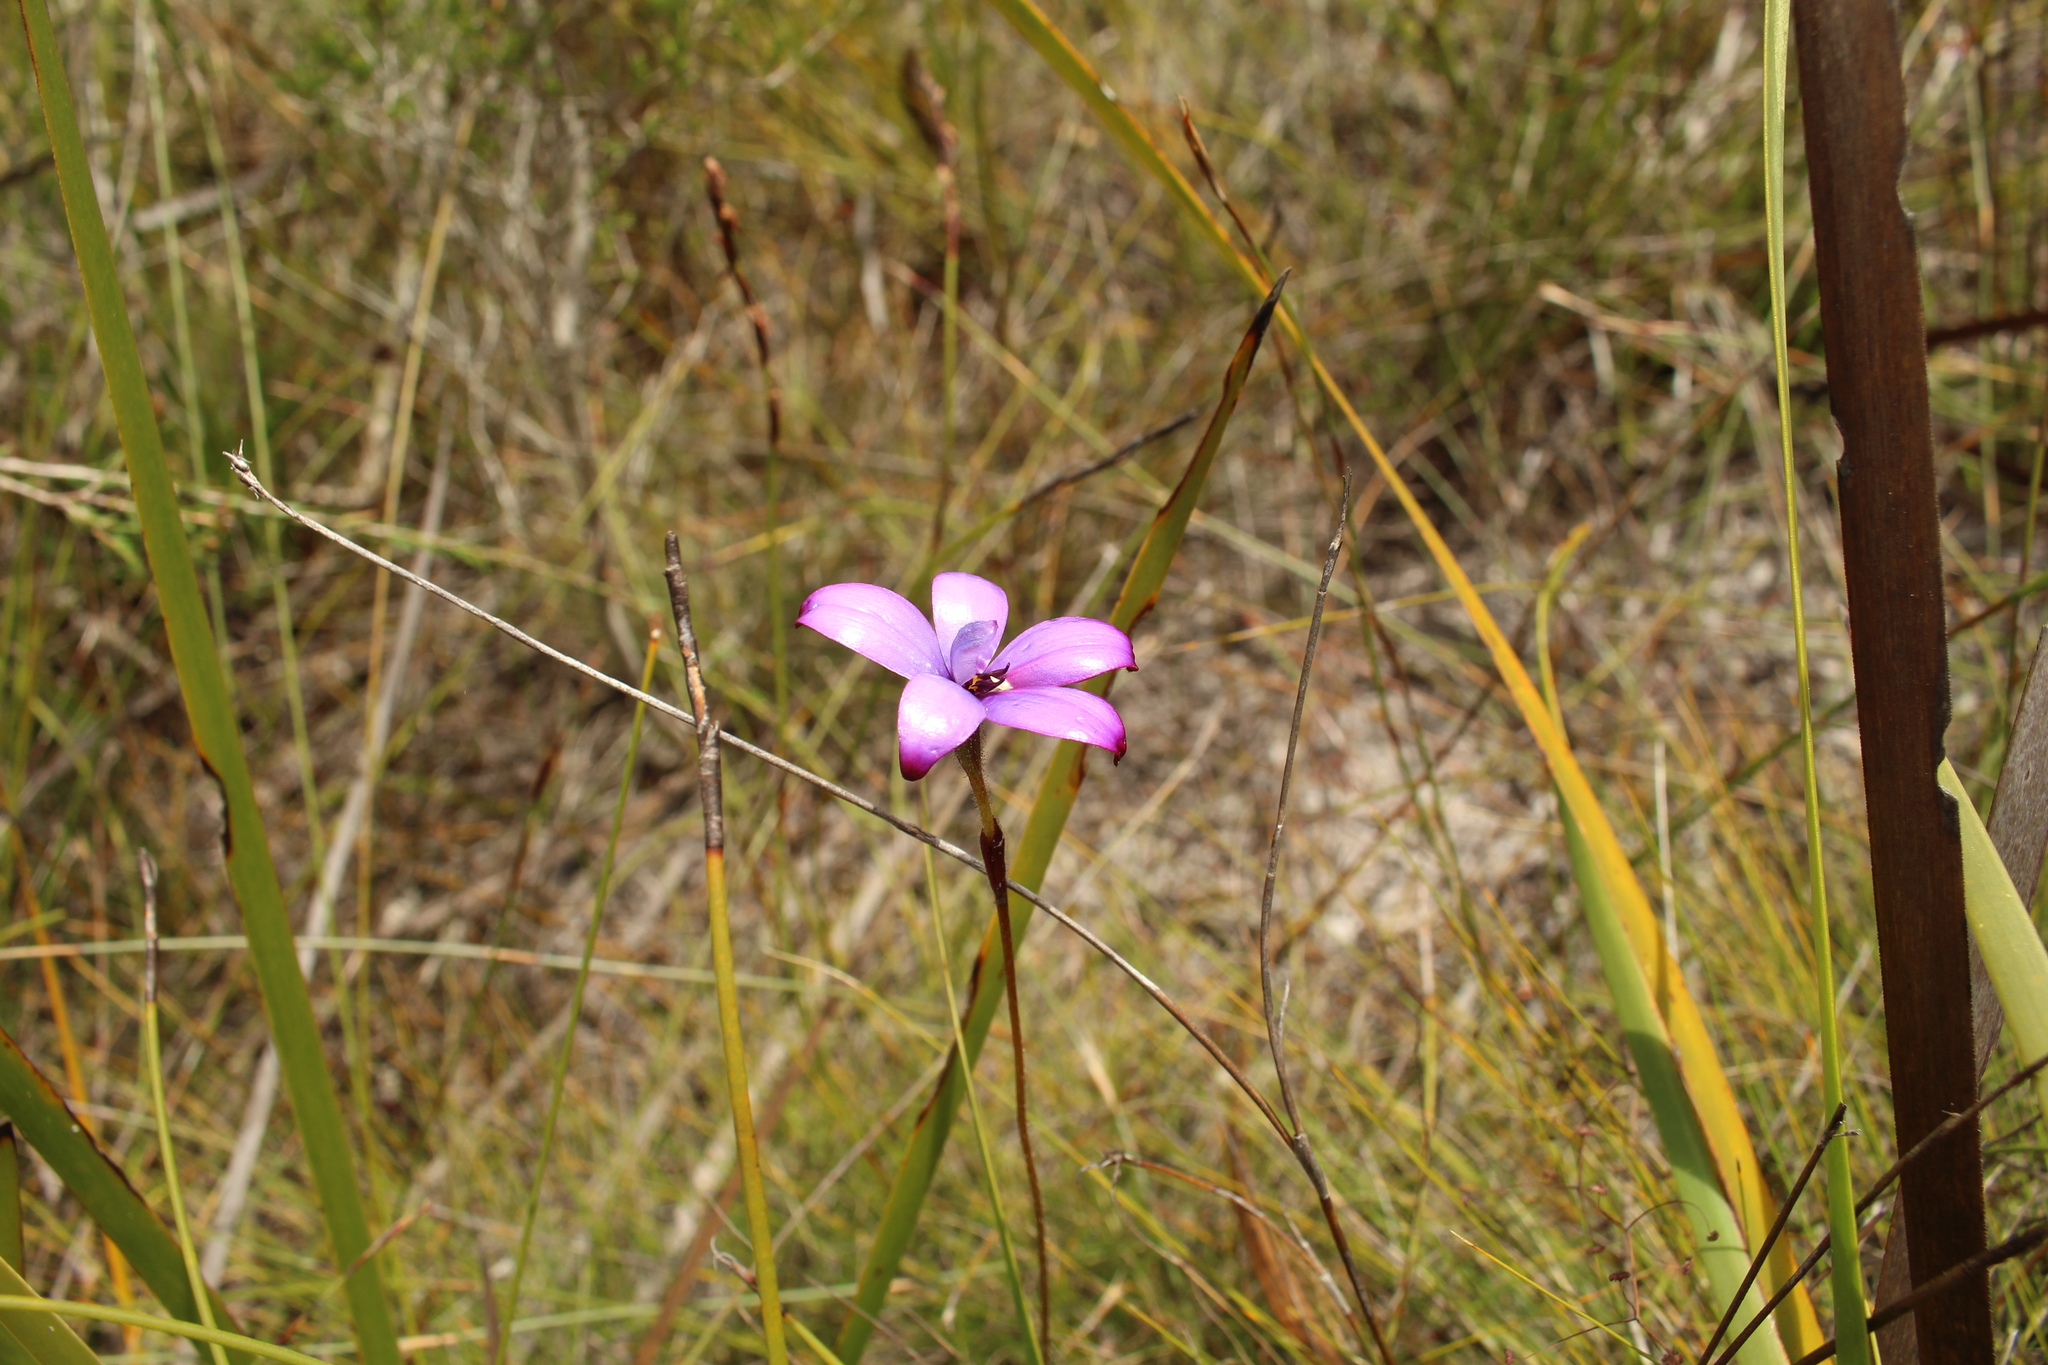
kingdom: Plantae
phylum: Tracheophyta
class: Liliopsida
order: Asparagales
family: Orchidaceae
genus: Caladenia
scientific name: Caladenia brunonis
